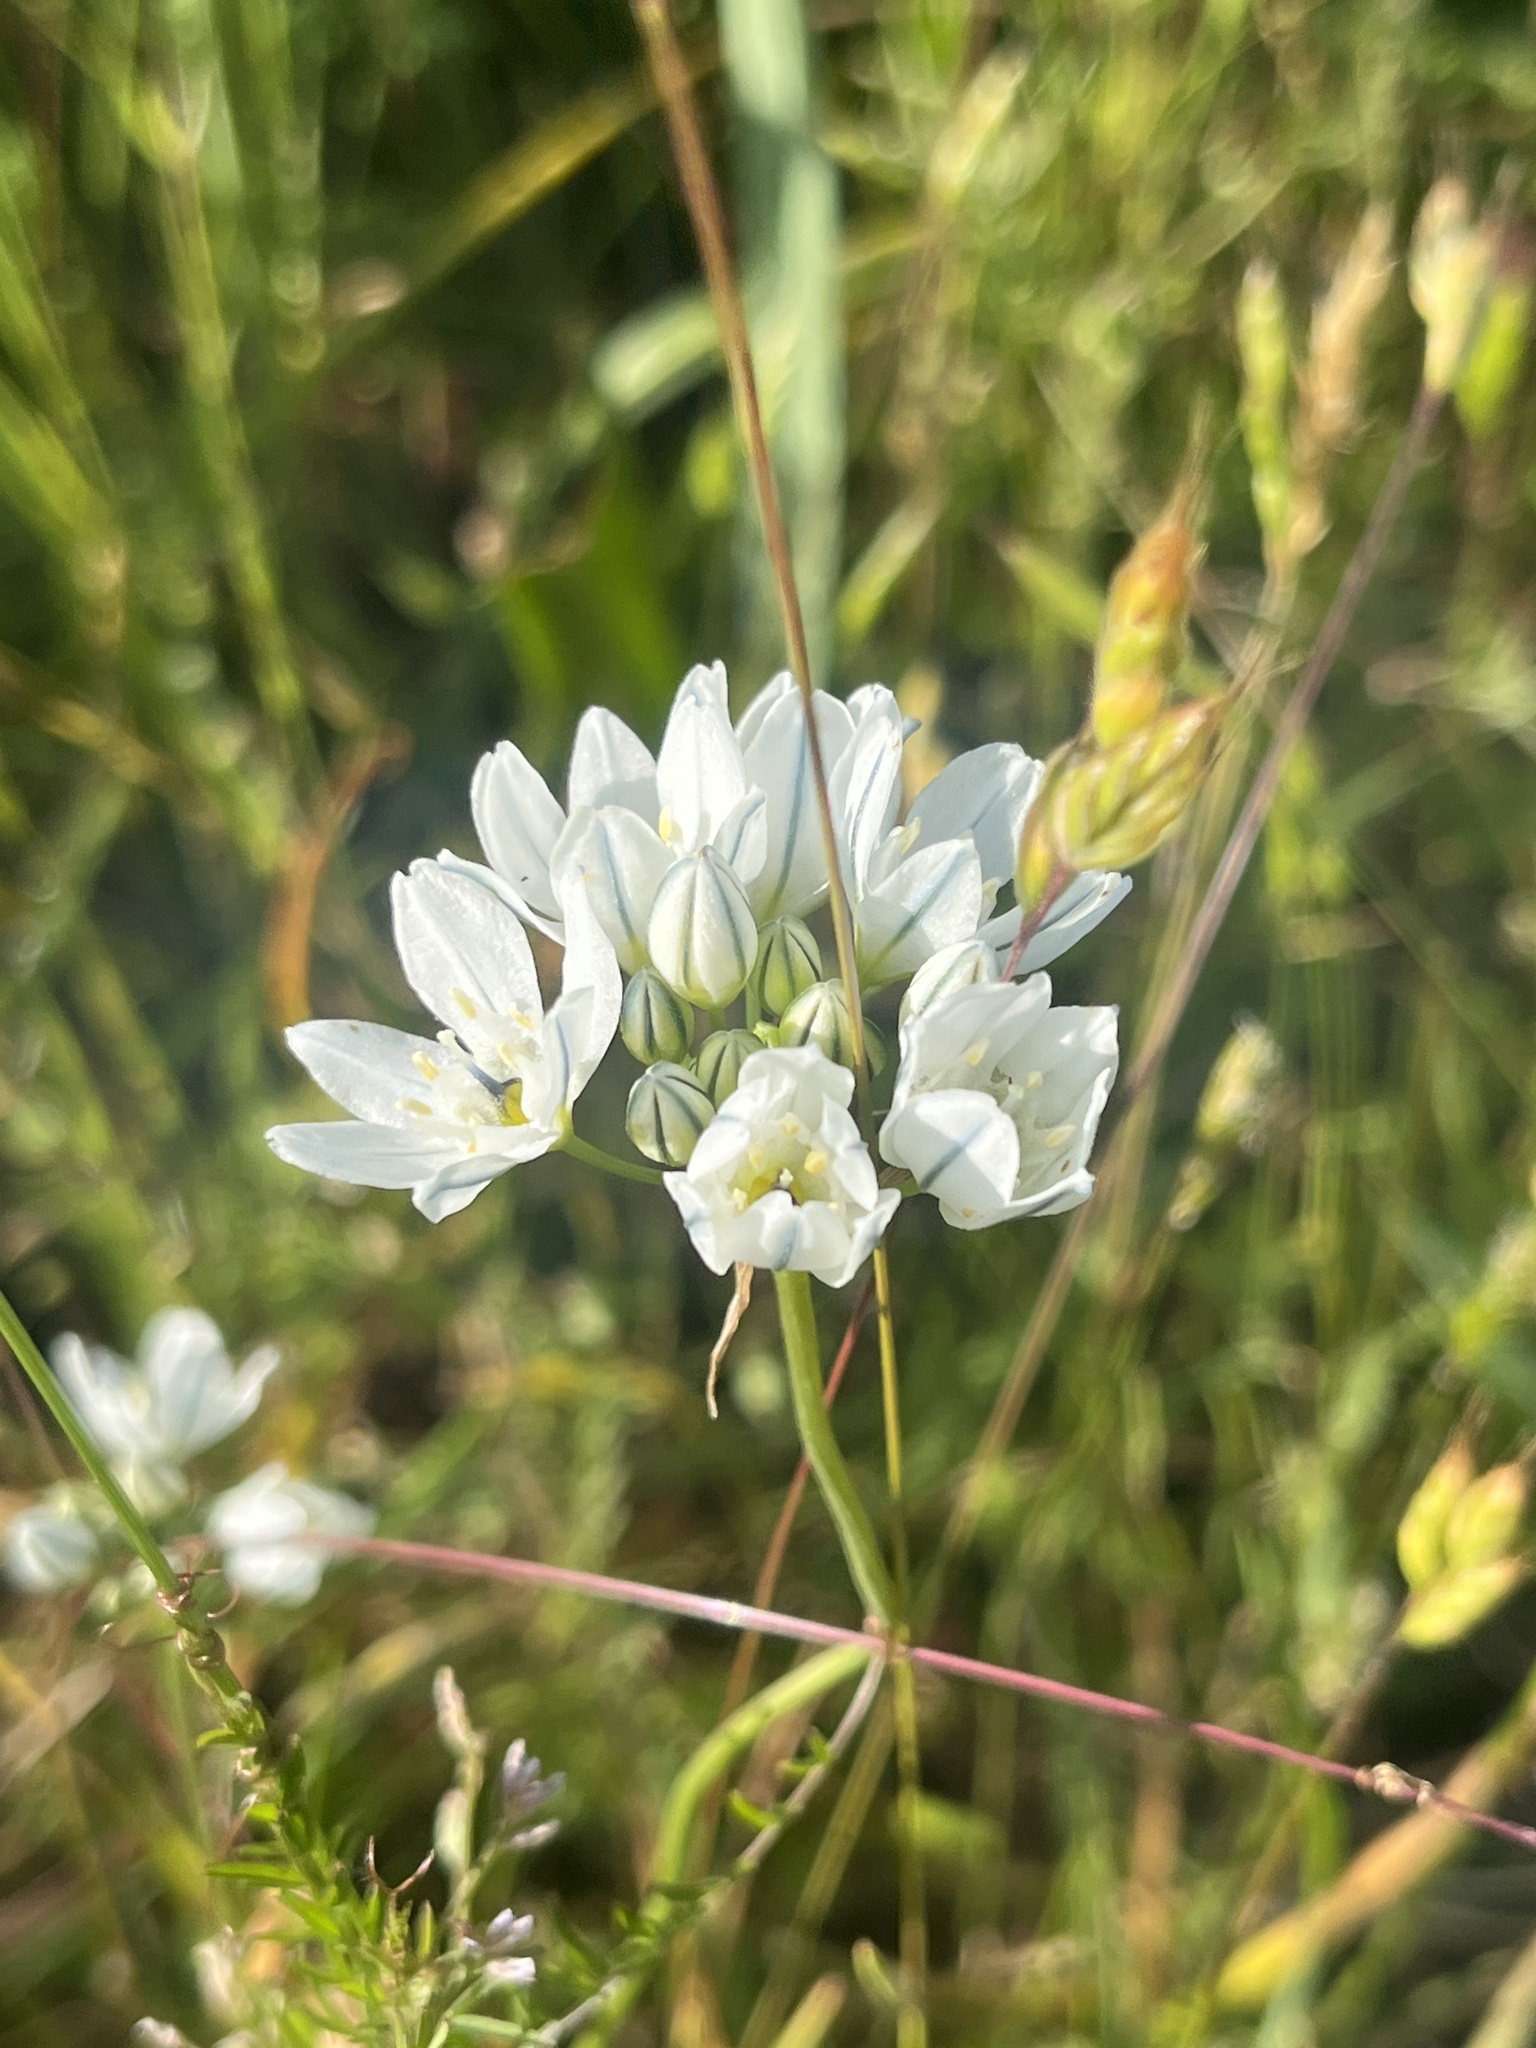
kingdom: Plantae
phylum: Tracheophyta
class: Liliopsida
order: Asparagales
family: Asparagaceae
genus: Triteleia
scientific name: Triteleia hyacinthina
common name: White brodiaea
